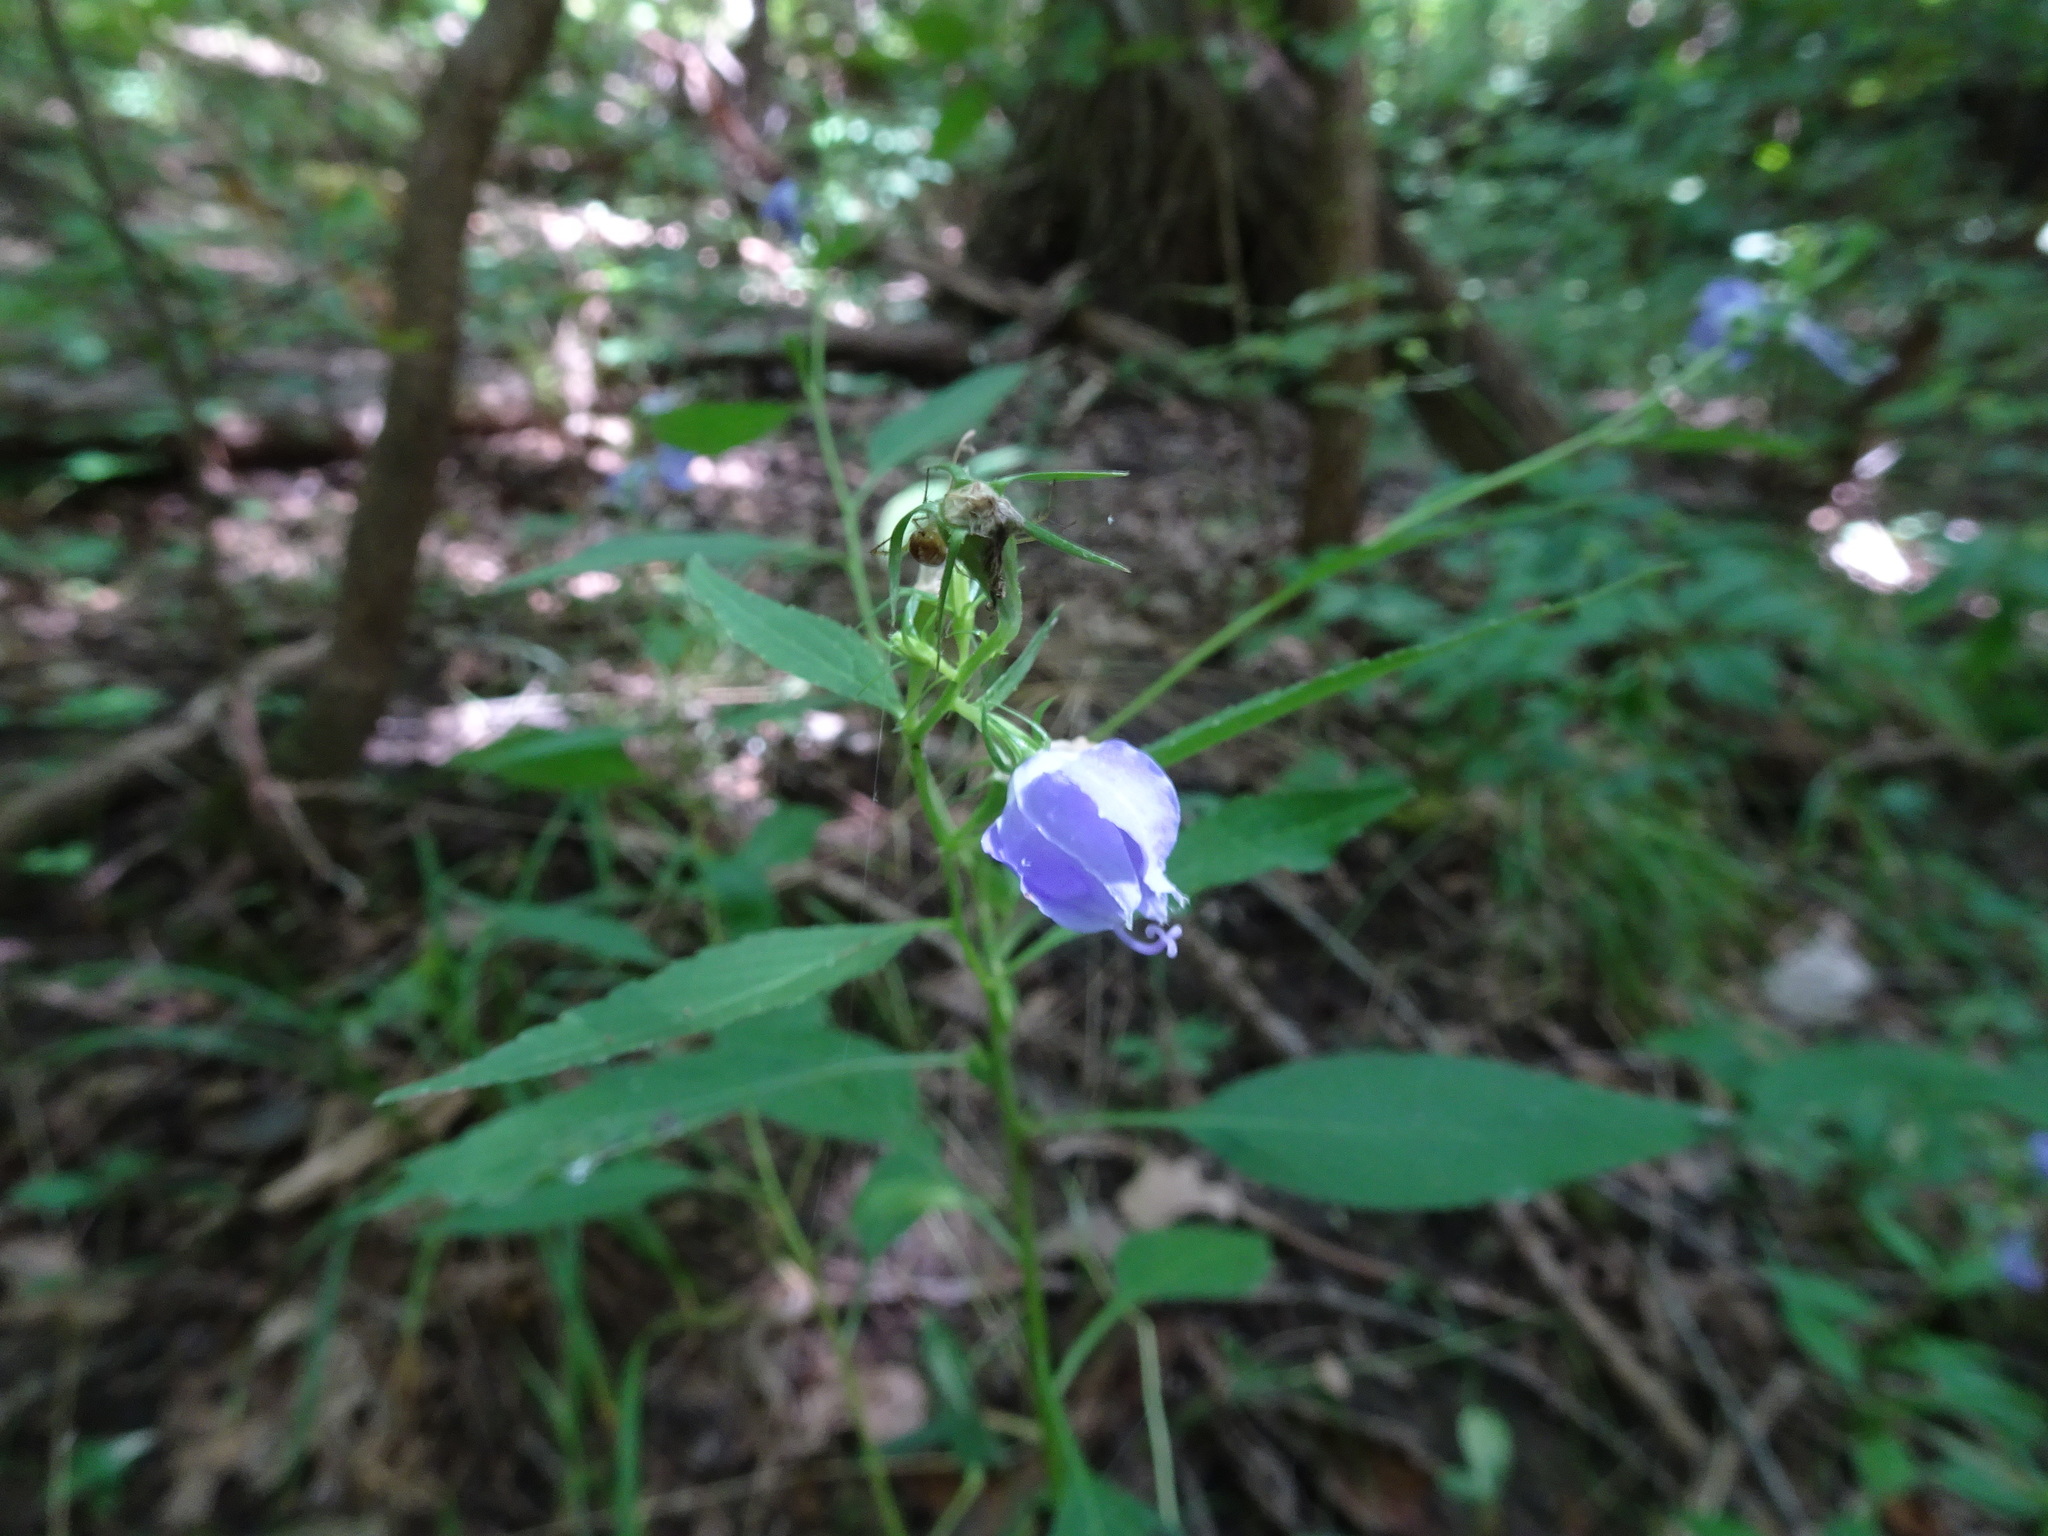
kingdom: Plantae
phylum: Tracheophyta
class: Magnoliopsida
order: Asterales
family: Campanulaceae
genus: Campanulastrum
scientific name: Campanulastrum americanum
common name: American bellflower
